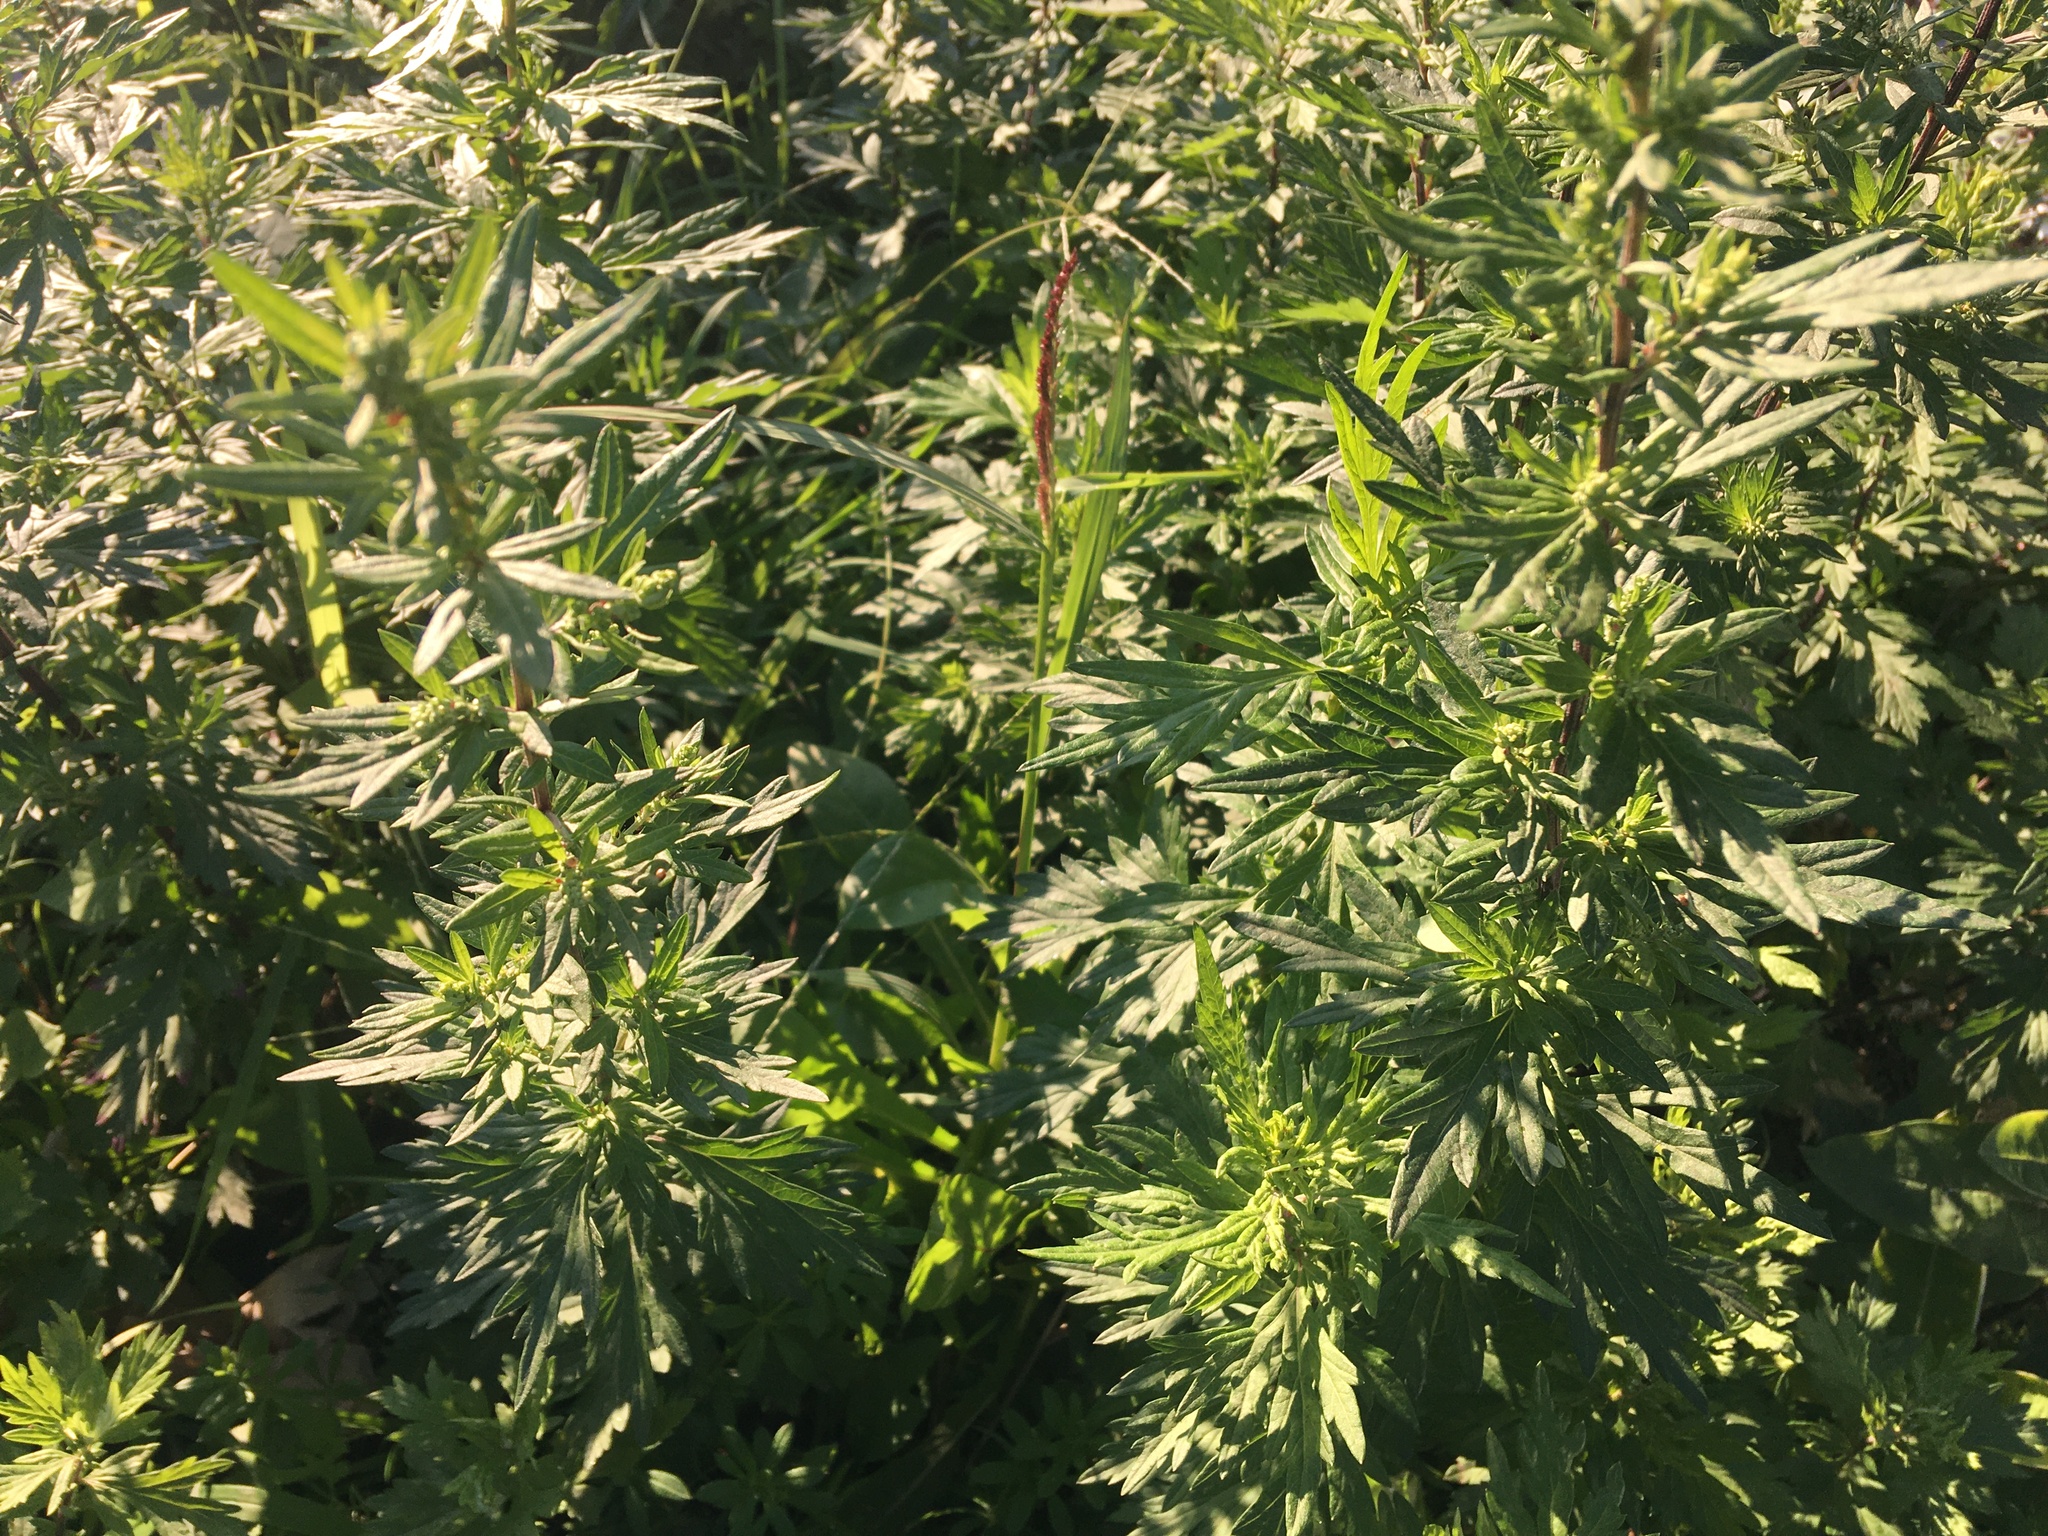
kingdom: Plantae
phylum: Tracheophyta
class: Magnoliopsida
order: Asterales
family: Asteraceae
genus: Artemisia
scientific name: Artemisia vulgaris
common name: Mugwort
